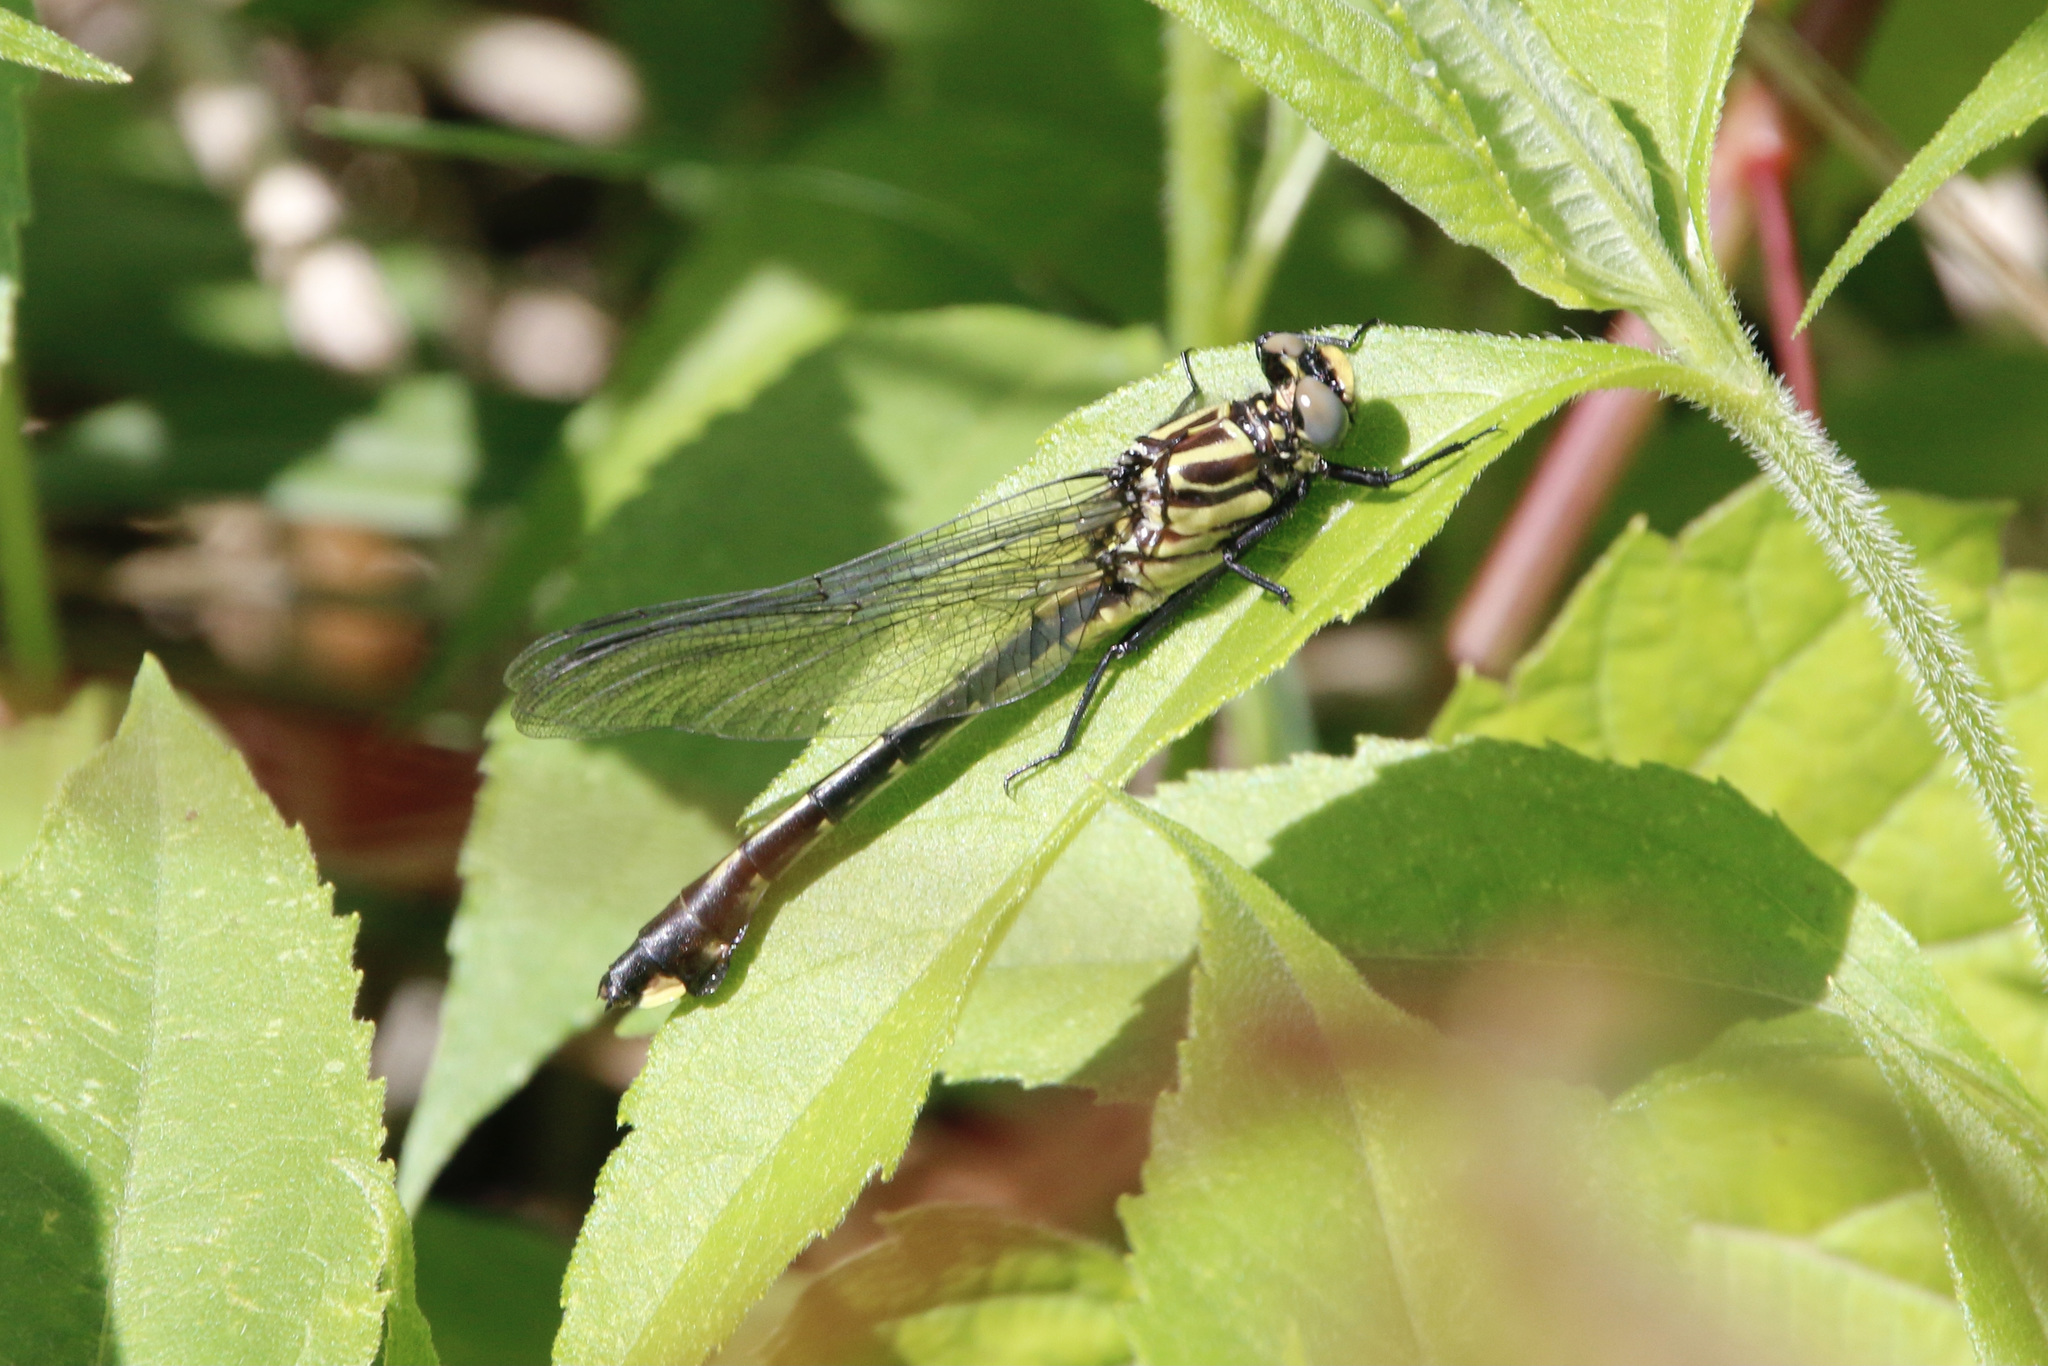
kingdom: Animalia
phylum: Arthropoda
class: Insecta
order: Odonata
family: Gomphidae
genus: Gomphurus
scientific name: Gomphurus vastus
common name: Cobra clubtail
